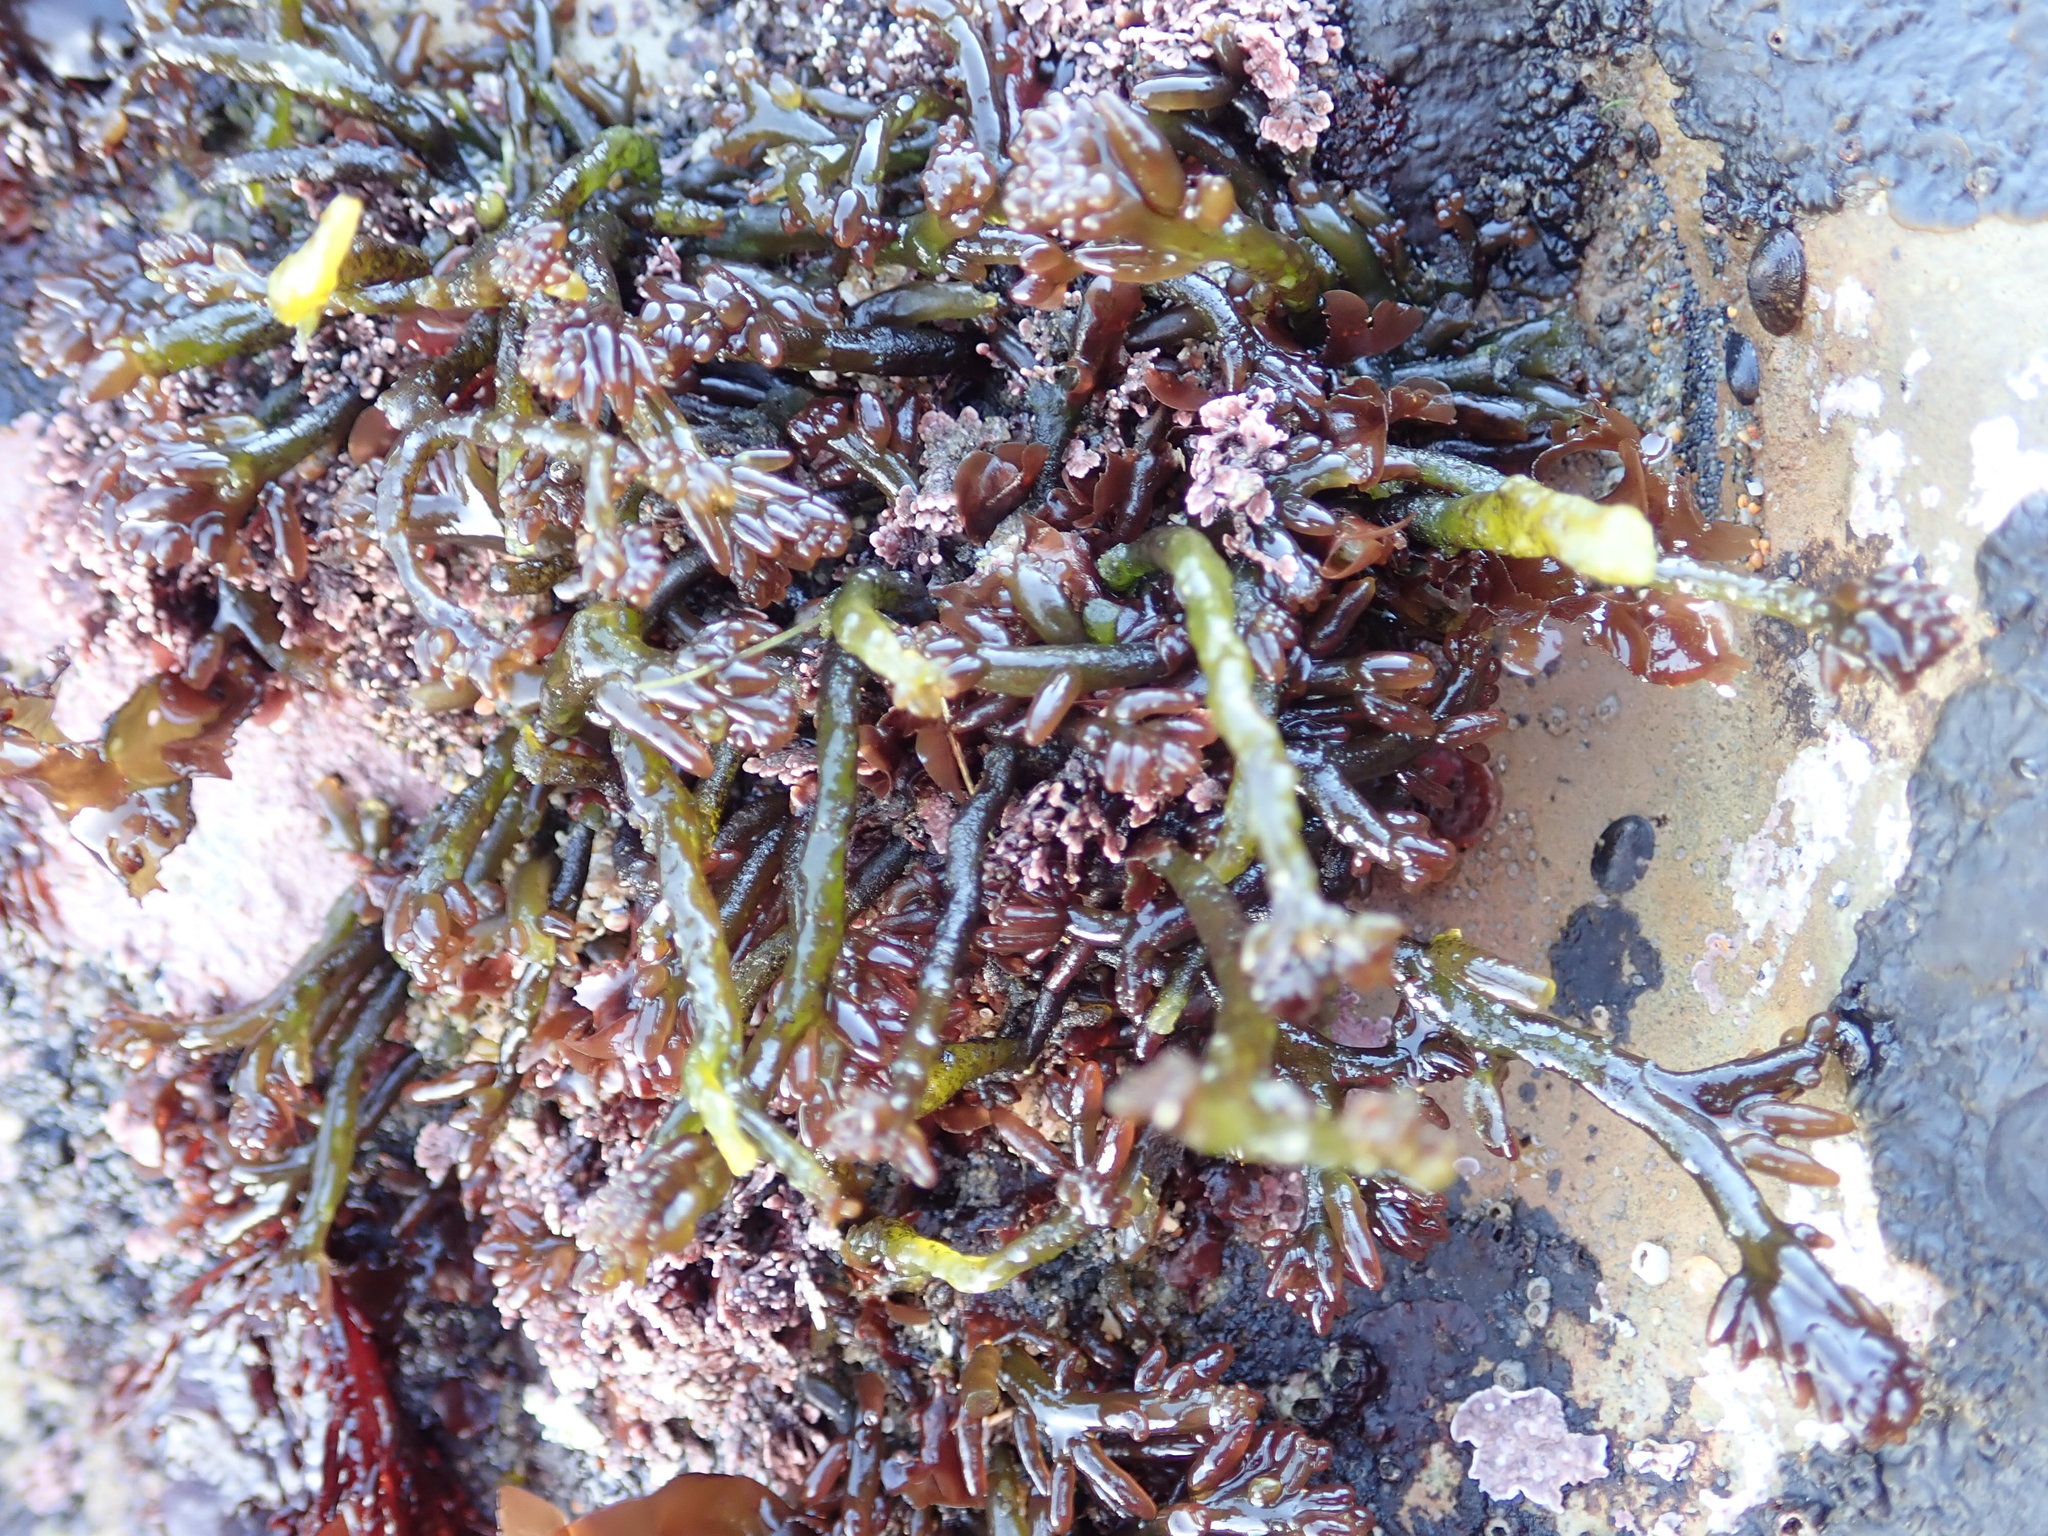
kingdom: Plantae
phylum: Rhodophyta
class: Florideophyceae
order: Rhodymeniales
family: Champiaceae
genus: Neogastroclonium
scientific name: Neogastroclonium subarticulatum
